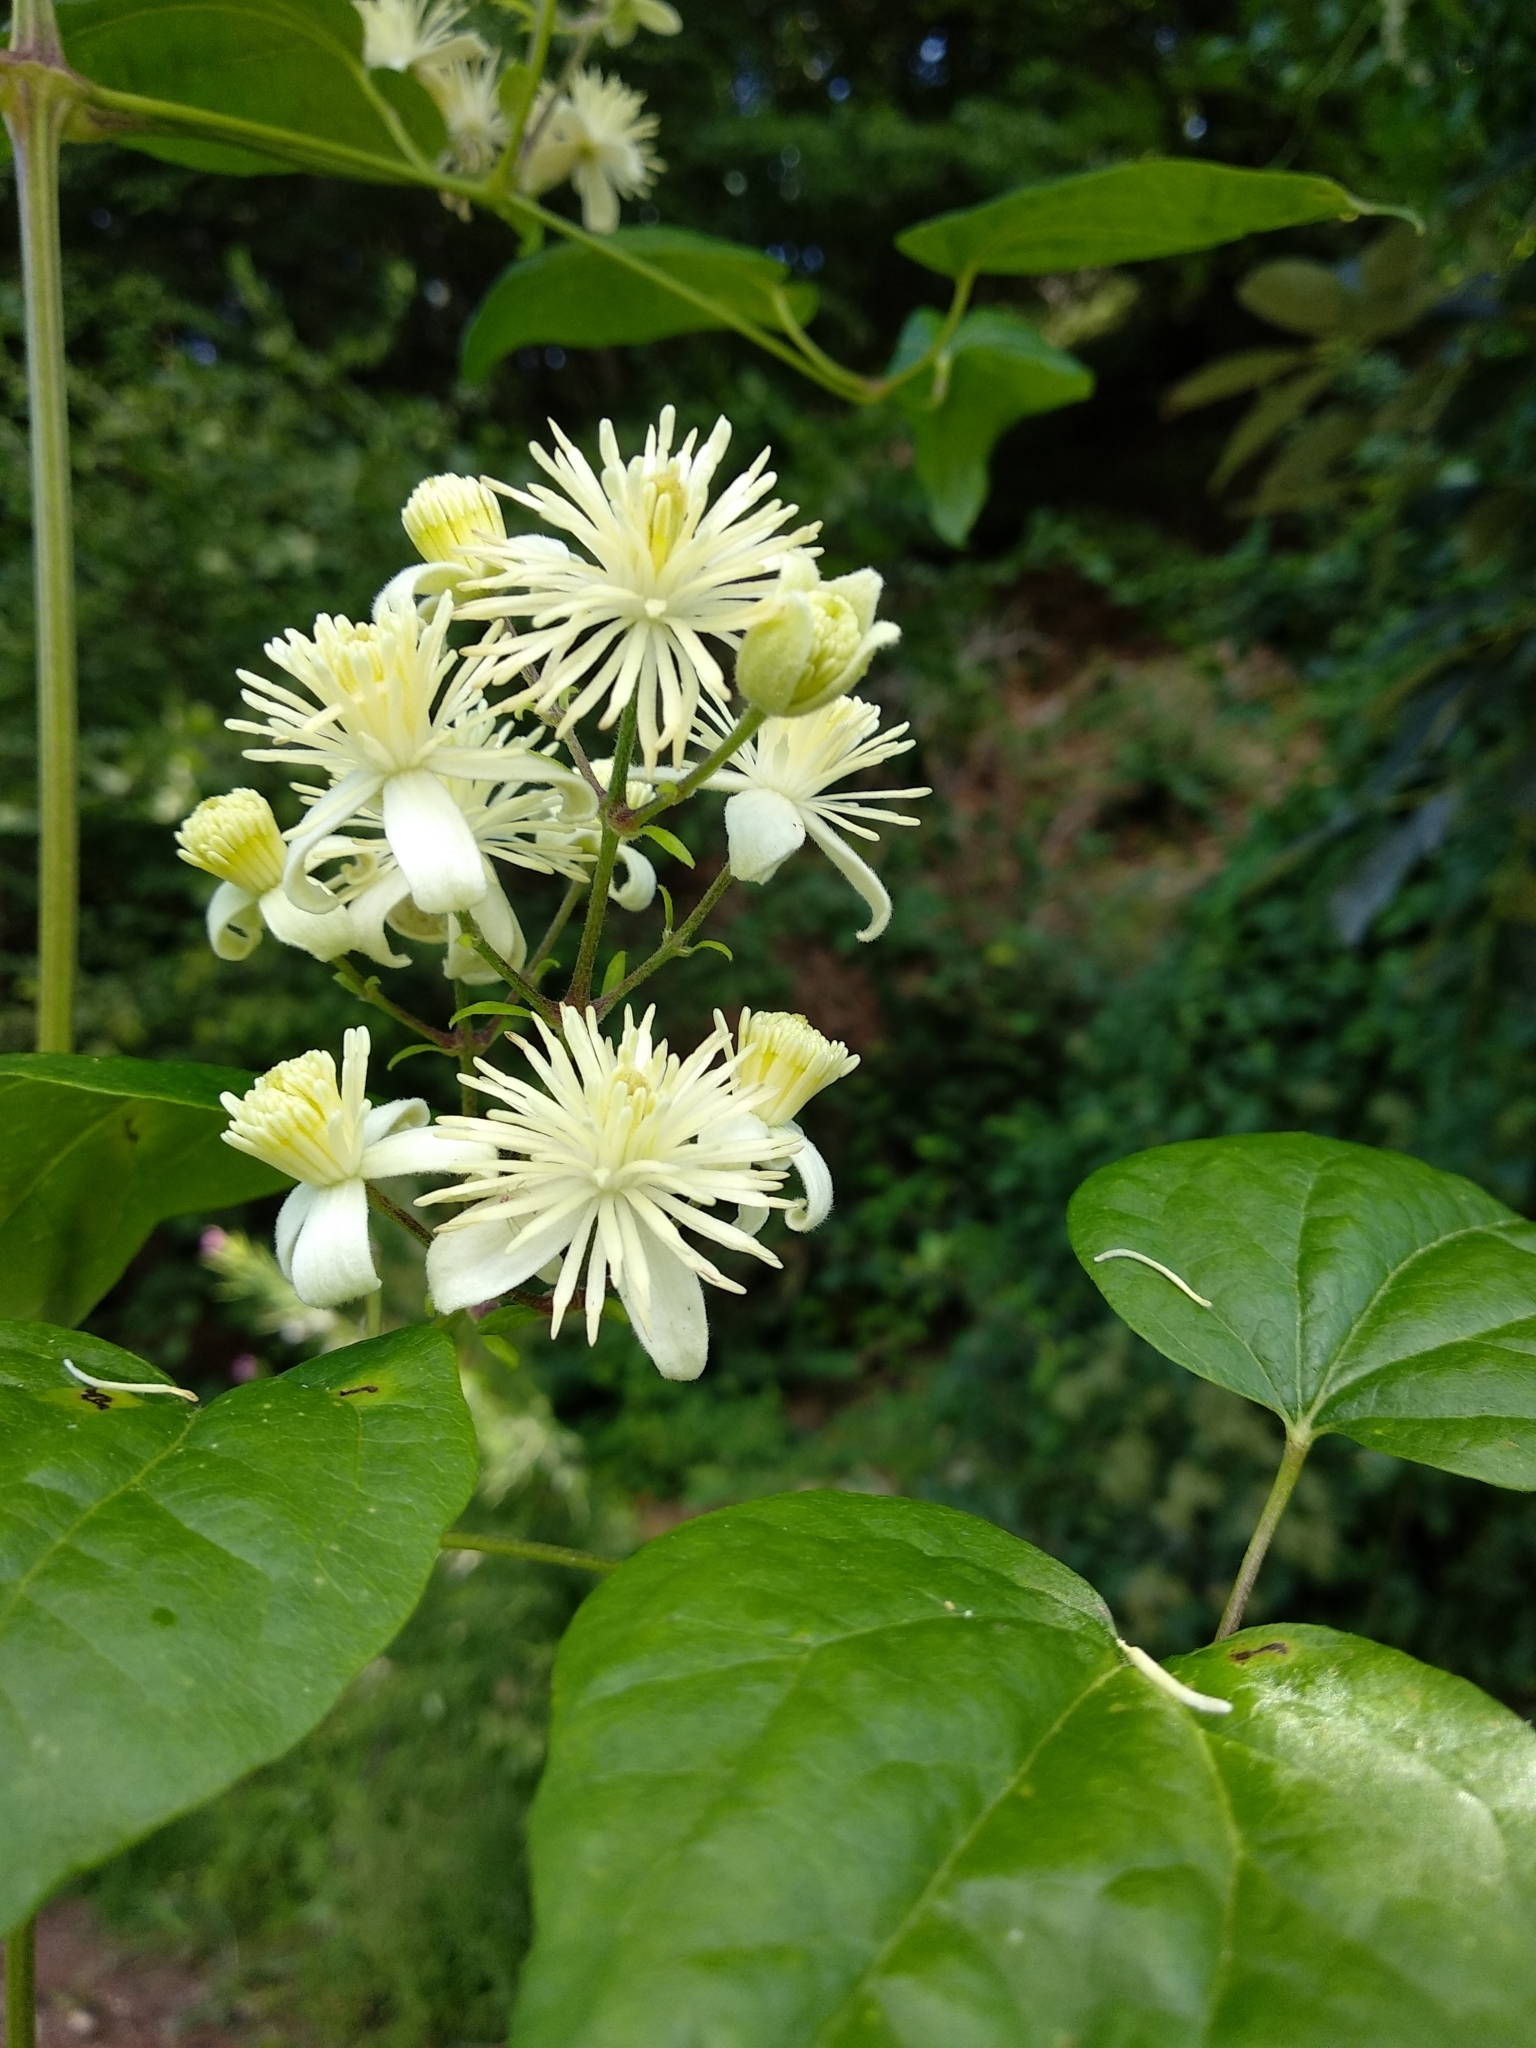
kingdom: Plantae
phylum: Tracheophyta
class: Magnoliopsida
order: Ranunculales
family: Ranunculaceae
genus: Clematis
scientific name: Clematis vitalba
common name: Evergreen clematis
